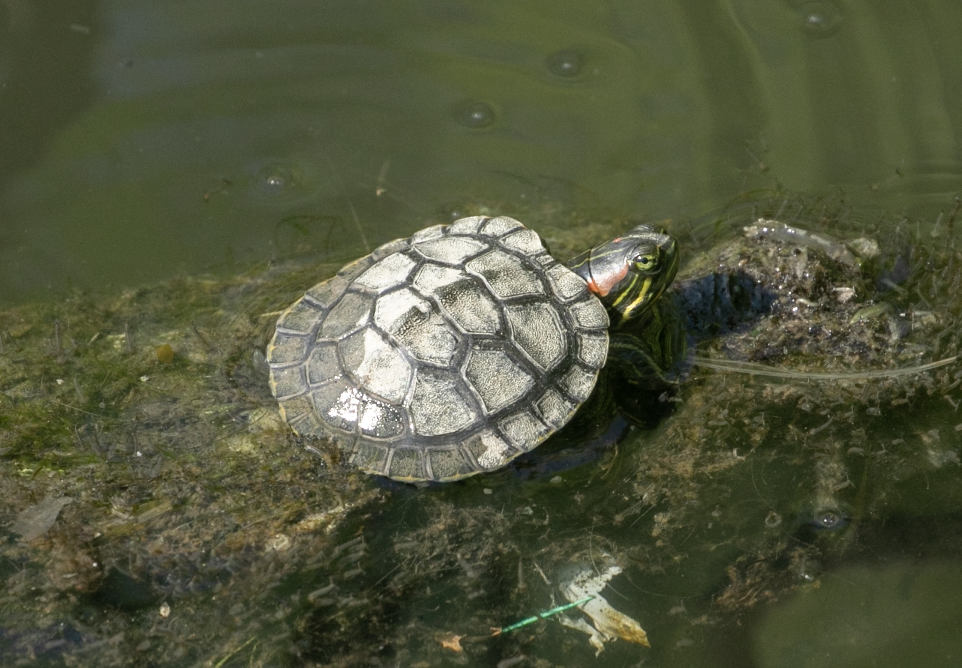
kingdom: Animalia
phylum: Chordata
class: Testudines
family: Emydidae
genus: Trachemys
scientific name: Trachemys scripta
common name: Slider
